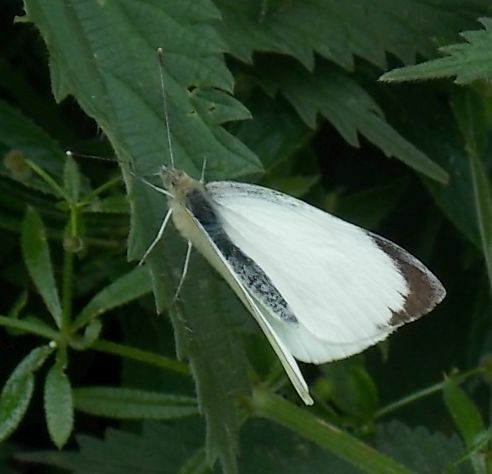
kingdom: Animalia
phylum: Arthropoda
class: Insecta
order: Lepidoptera
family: Pieridae
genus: Pieris
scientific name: Pieris brassicae
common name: Large white
